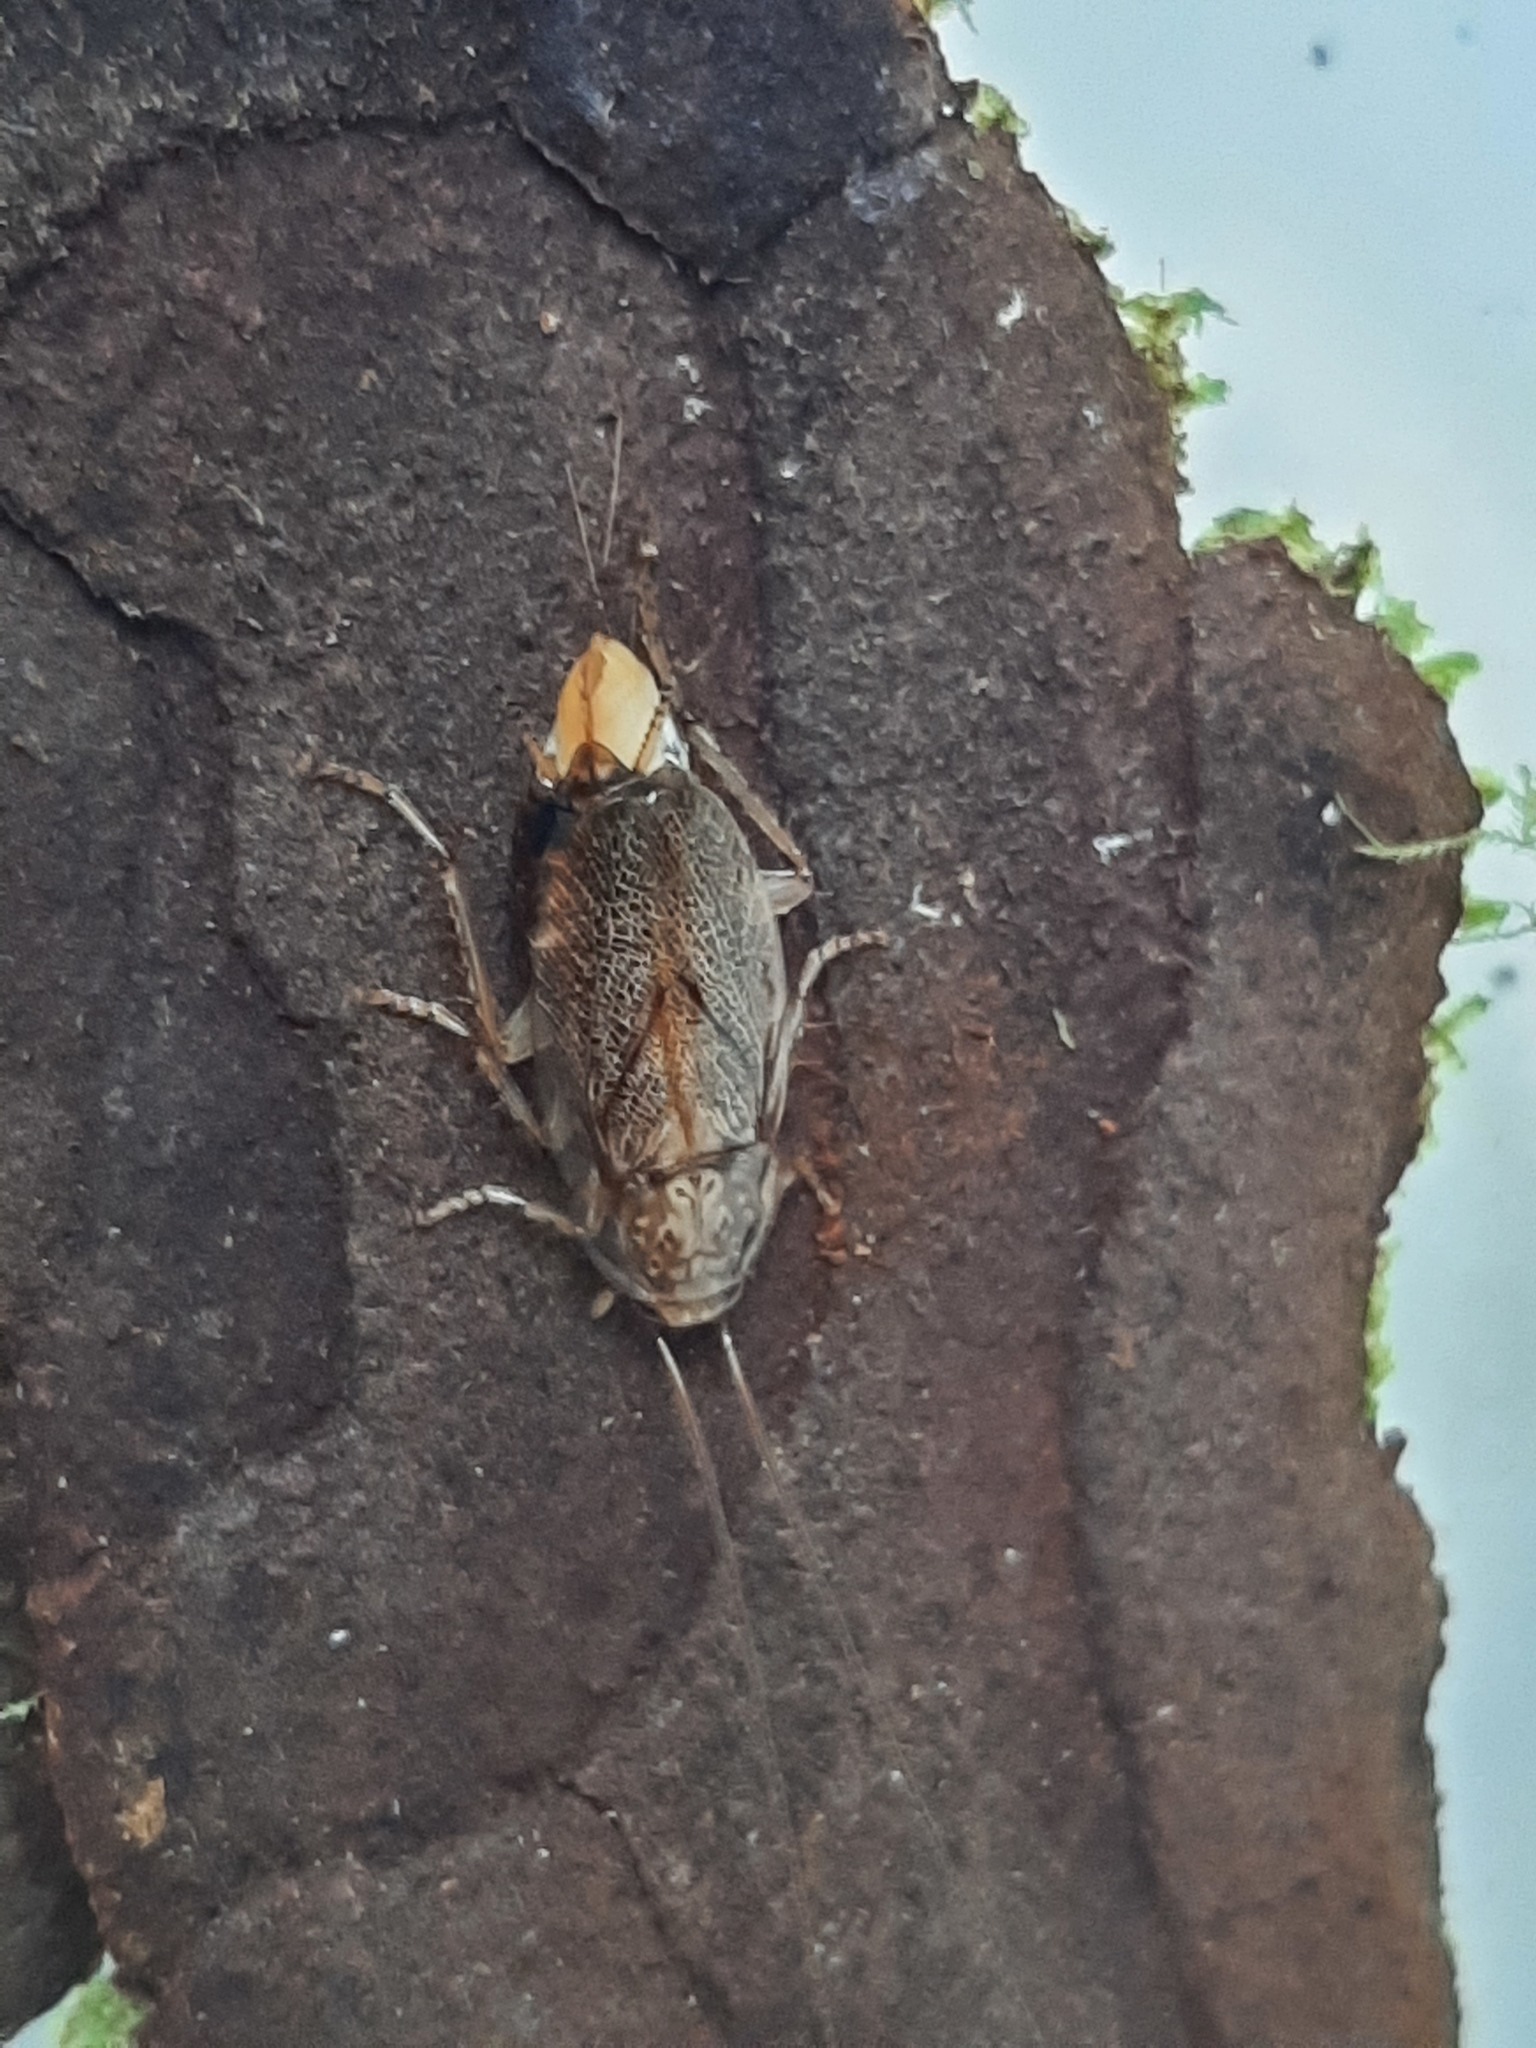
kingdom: Animalia
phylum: Arthropoda
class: Insecta
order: Blattodea
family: Ectobiidae
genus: Parellipsidion
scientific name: Parellipsidion latipenne
